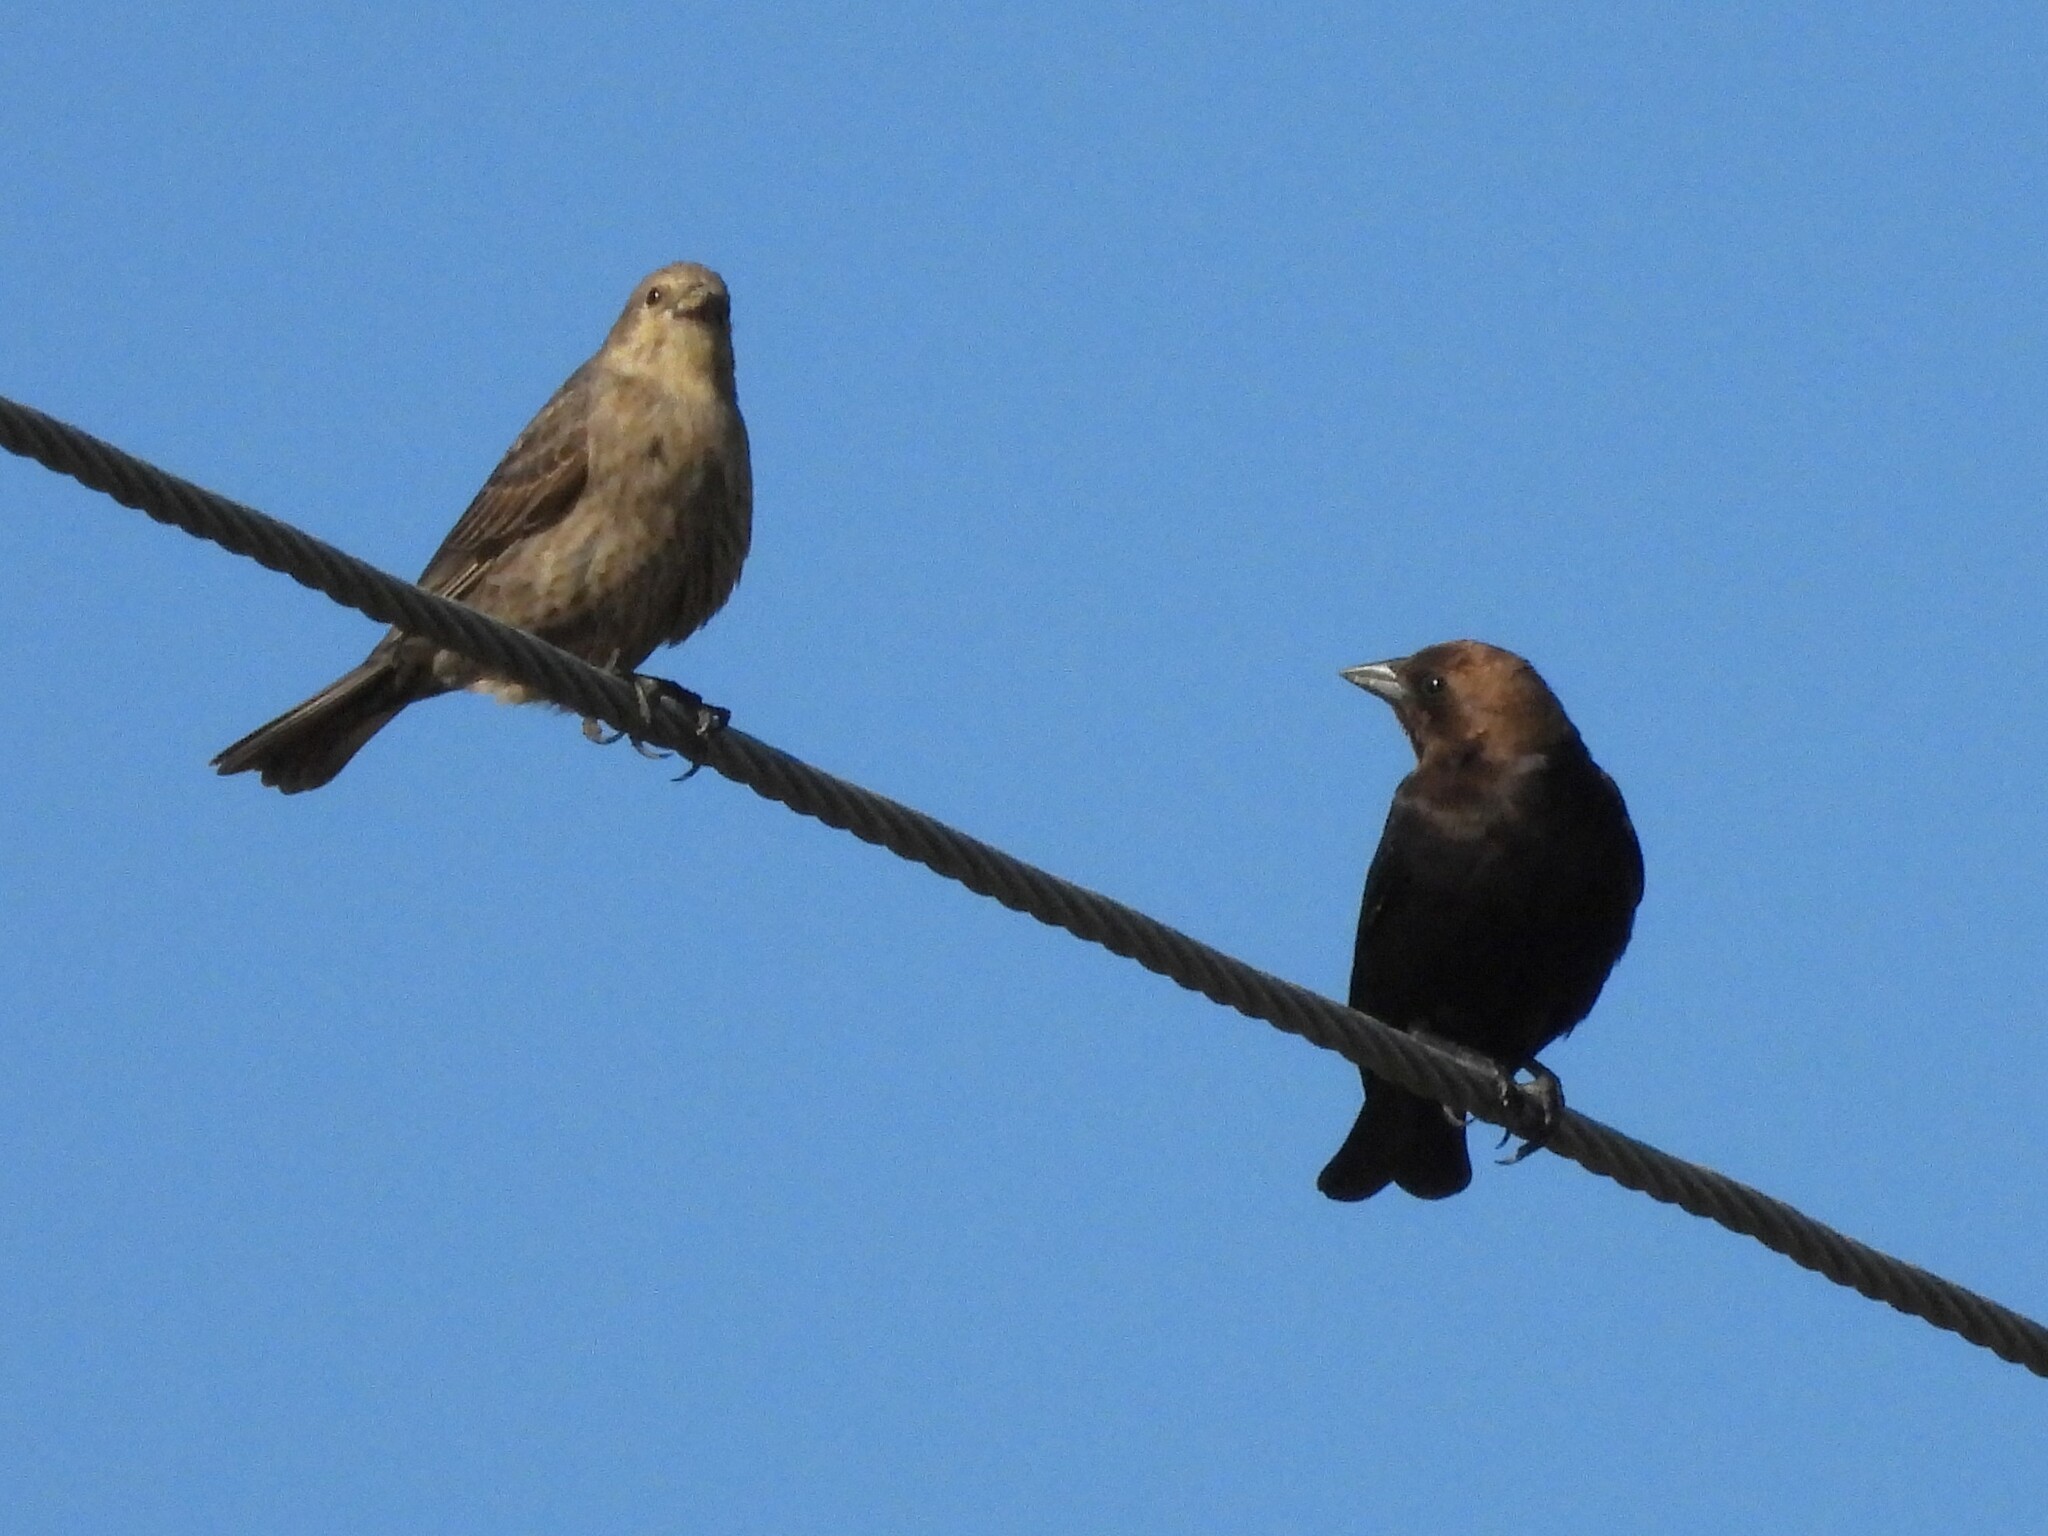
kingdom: Animalia
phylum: Chordata
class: Aves
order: Passeriformes
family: Icteridae
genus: Molothrus
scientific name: Molothrus ater
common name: Brown-headed cowbird
